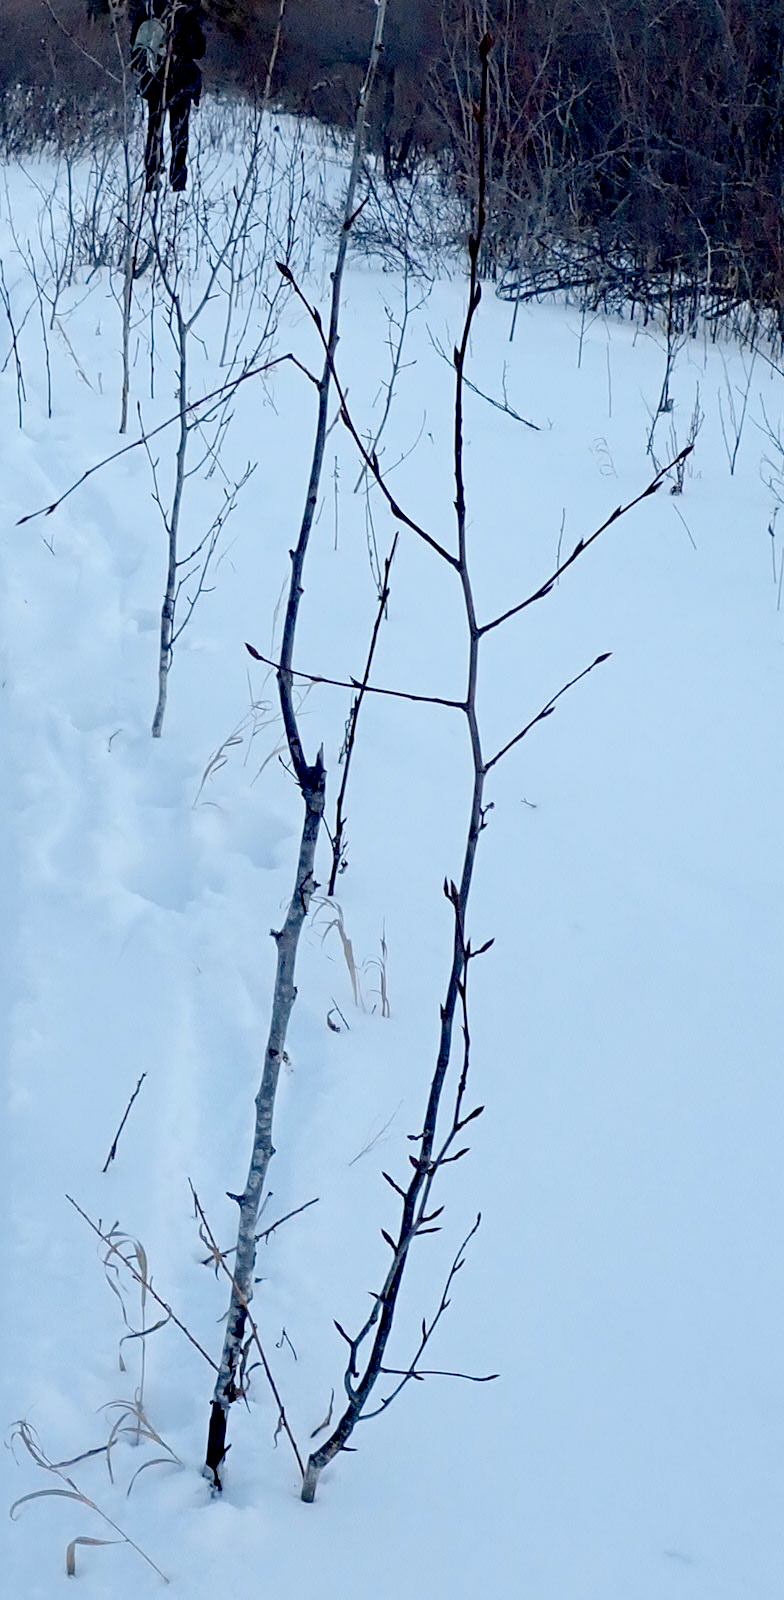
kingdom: Plantae
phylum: Tracheophyta
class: Magnoliopsida
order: Malpighiales
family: Salicaceae
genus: Populus
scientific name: Populus balsamifera
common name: Balsam poplar
